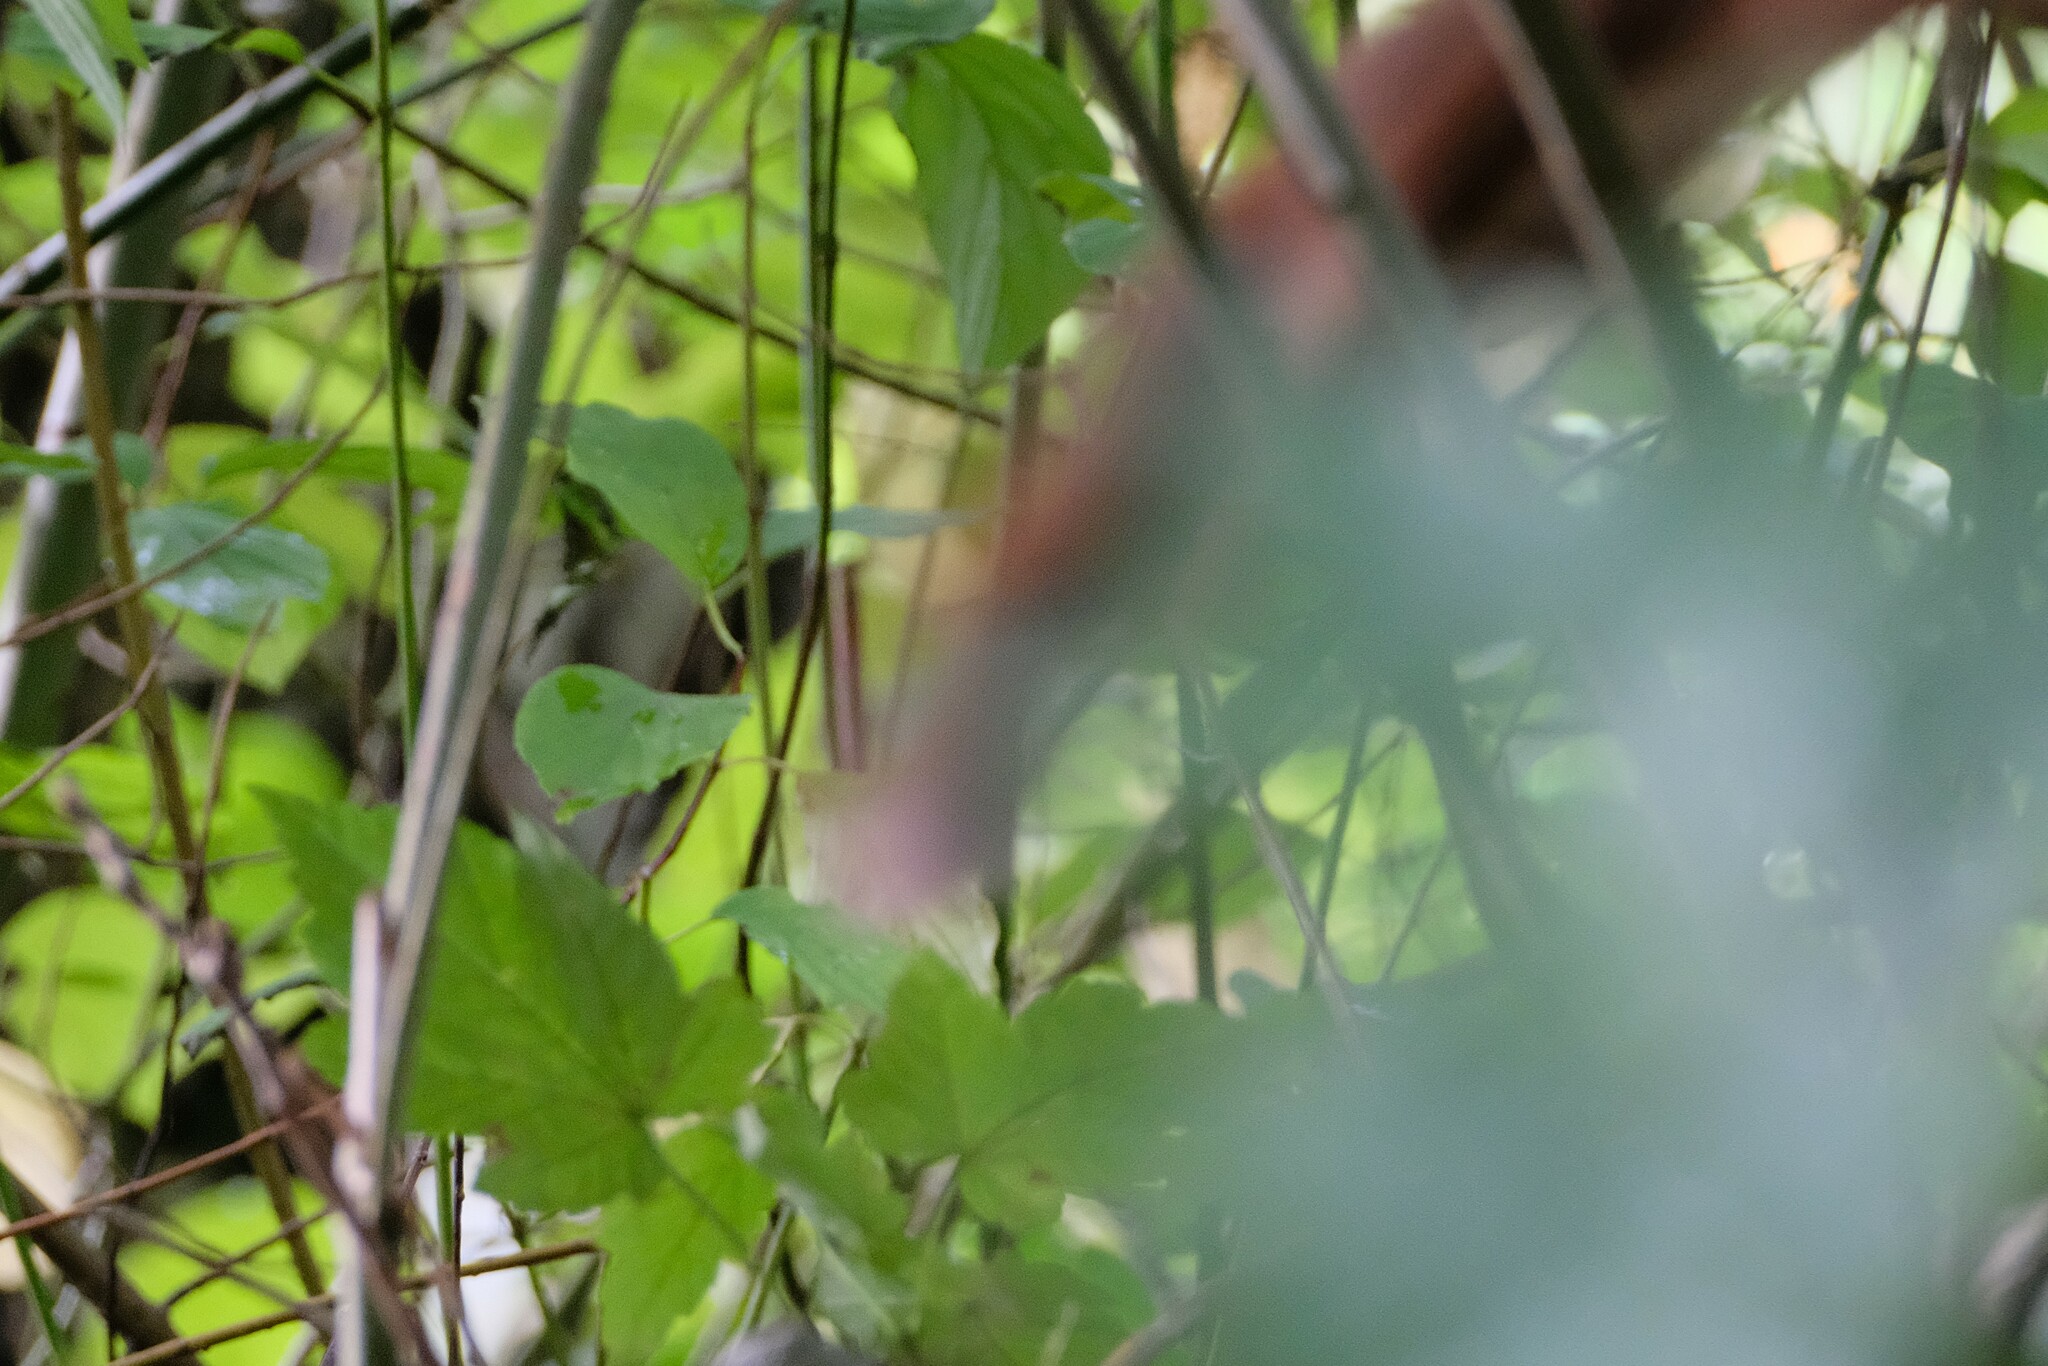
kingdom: Animalia
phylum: Chordata
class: Mammalia
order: Rodentia
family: Sciuridae
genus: Sciurus
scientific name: Sciurus vulgaris
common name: Eurasian red squirrel
